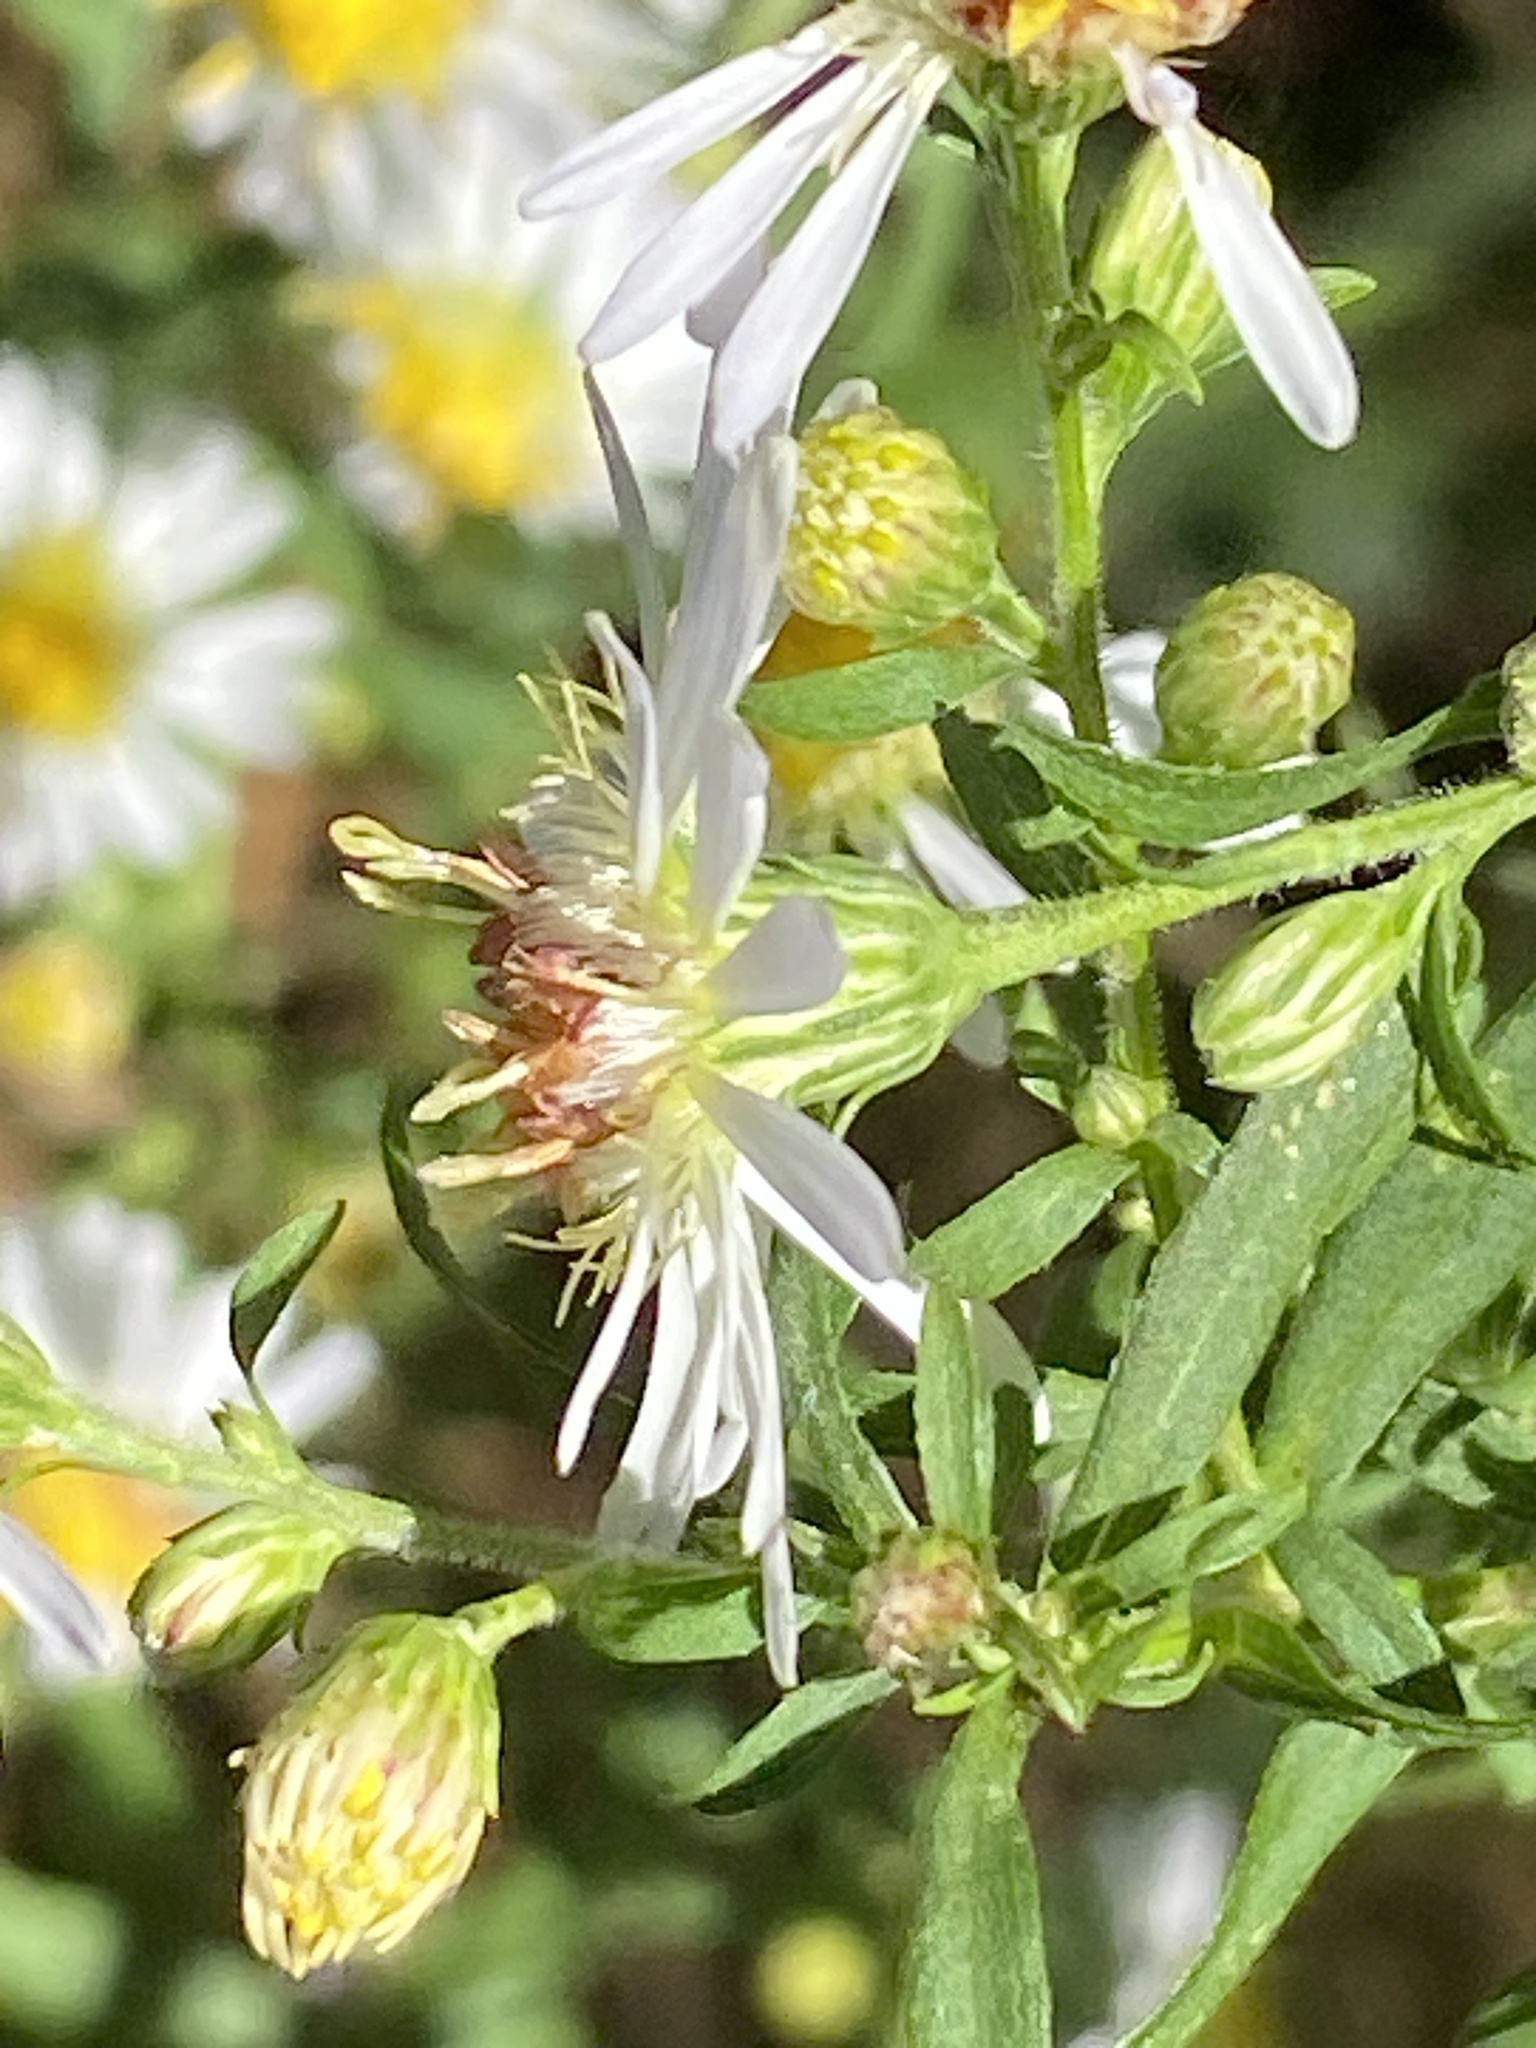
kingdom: Plantae
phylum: Tracheophyta
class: Magnoliopsida
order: Asterales
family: Asteraceae
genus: Symphyotrichum
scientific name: Symphyotrichum lanceolatum
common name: Panicled aster
